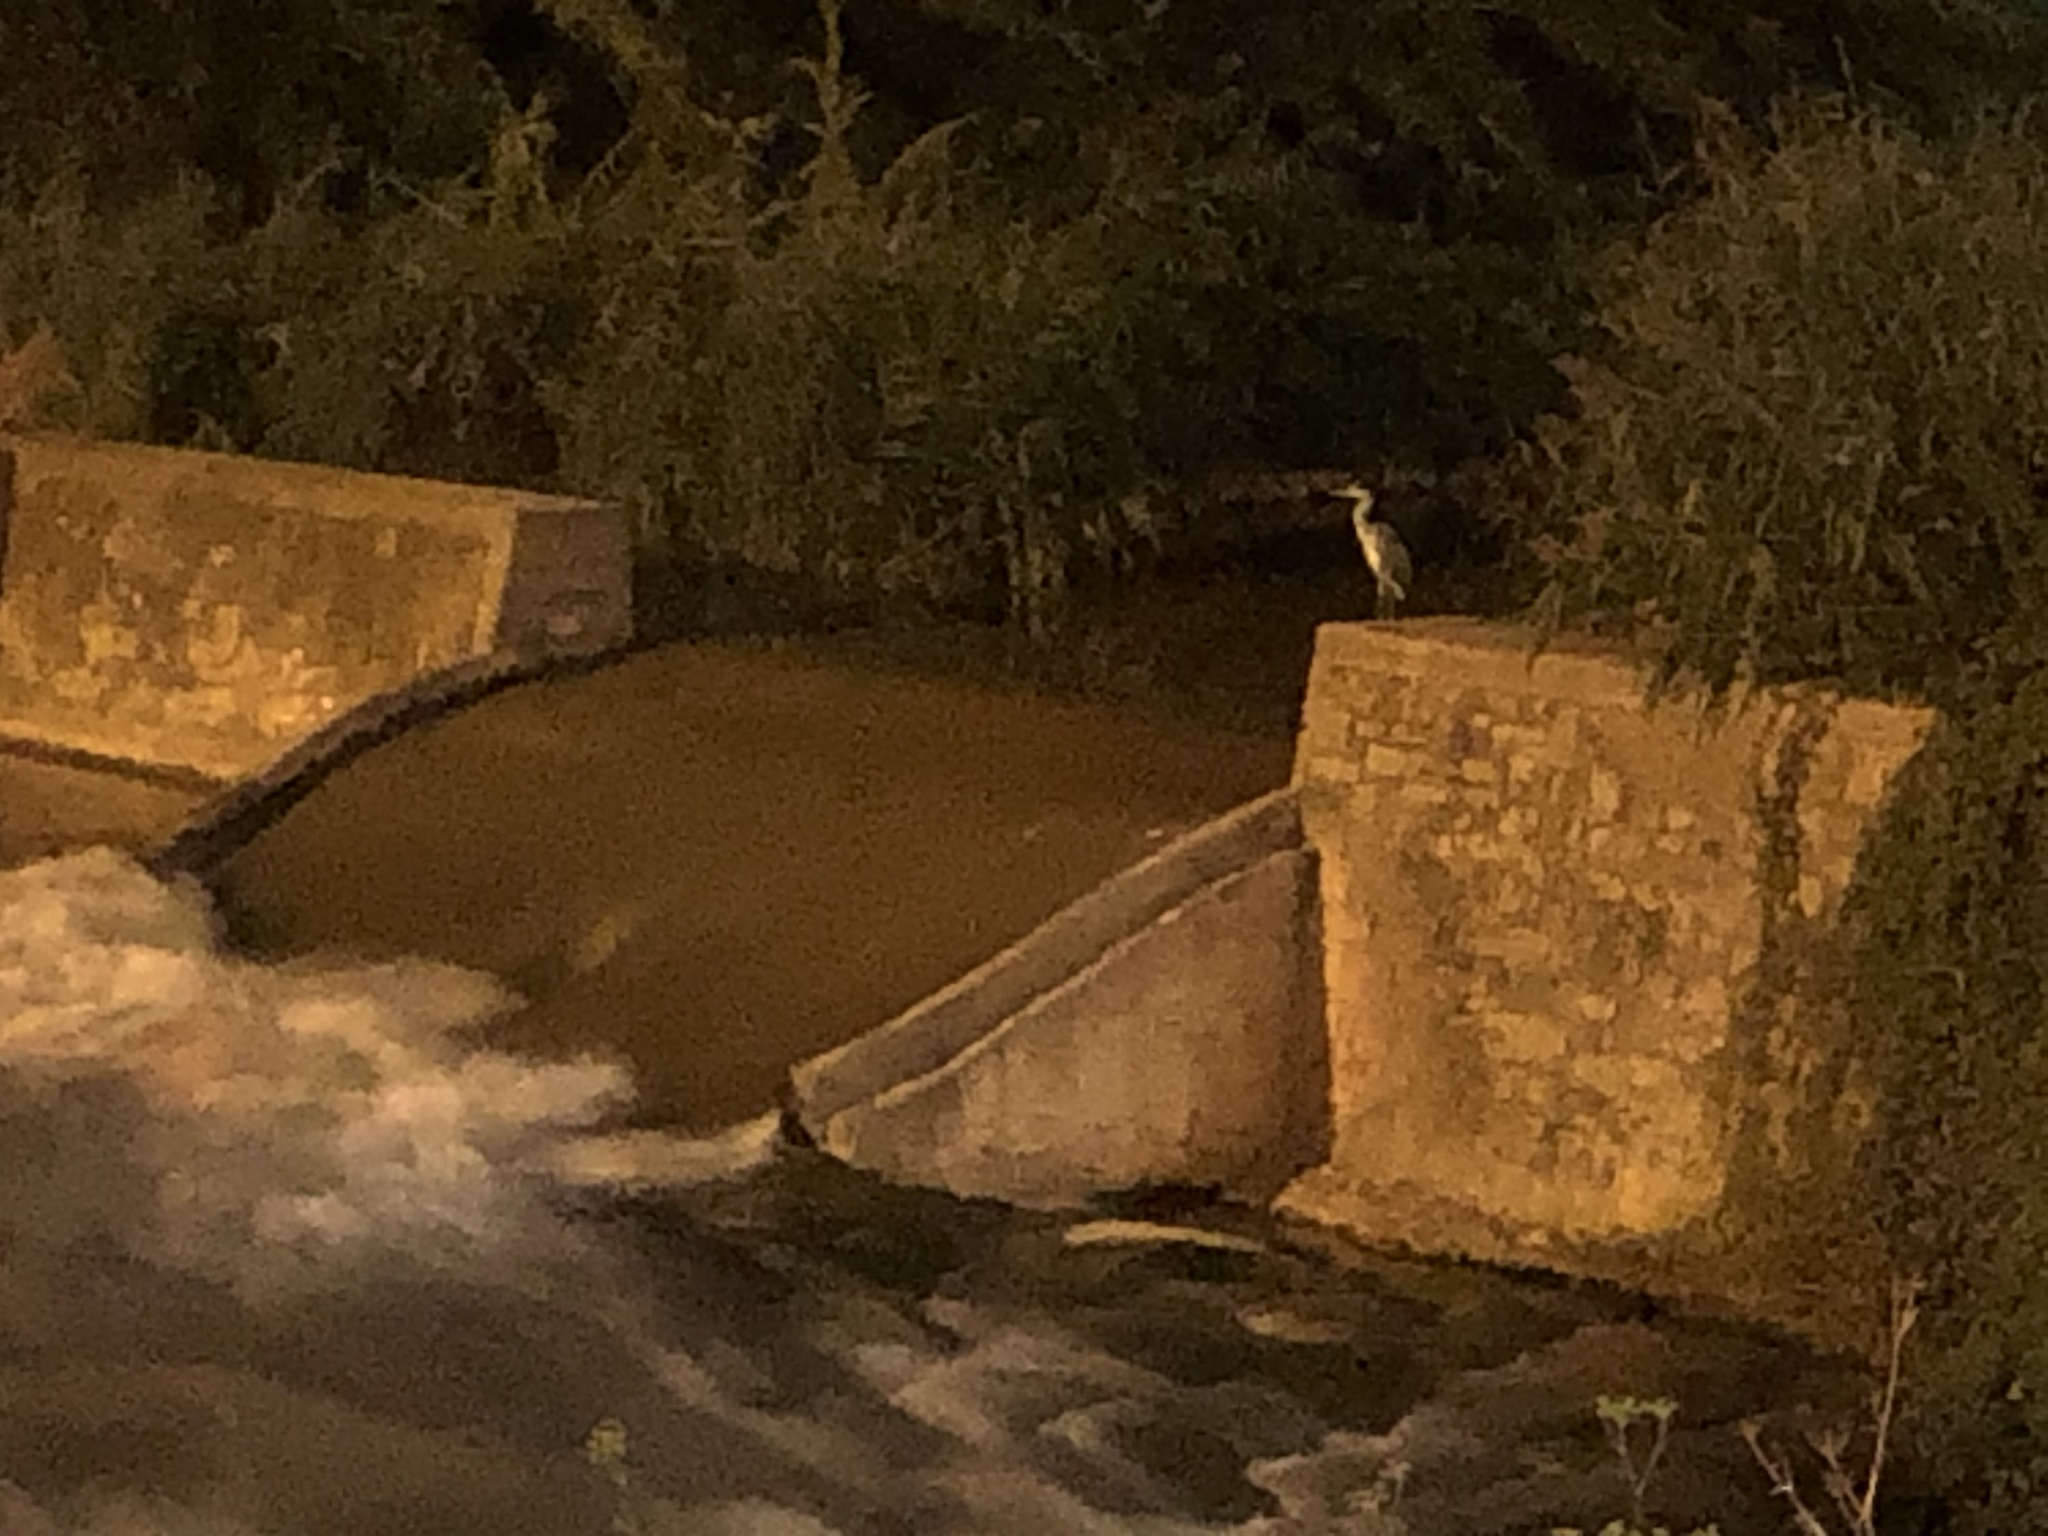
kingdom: Animalia
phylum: Chordata
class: Aves
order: Pelecaniformes
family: Ardeidae
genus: Ardea
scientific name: Ardea cinerea
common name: Grey heron
